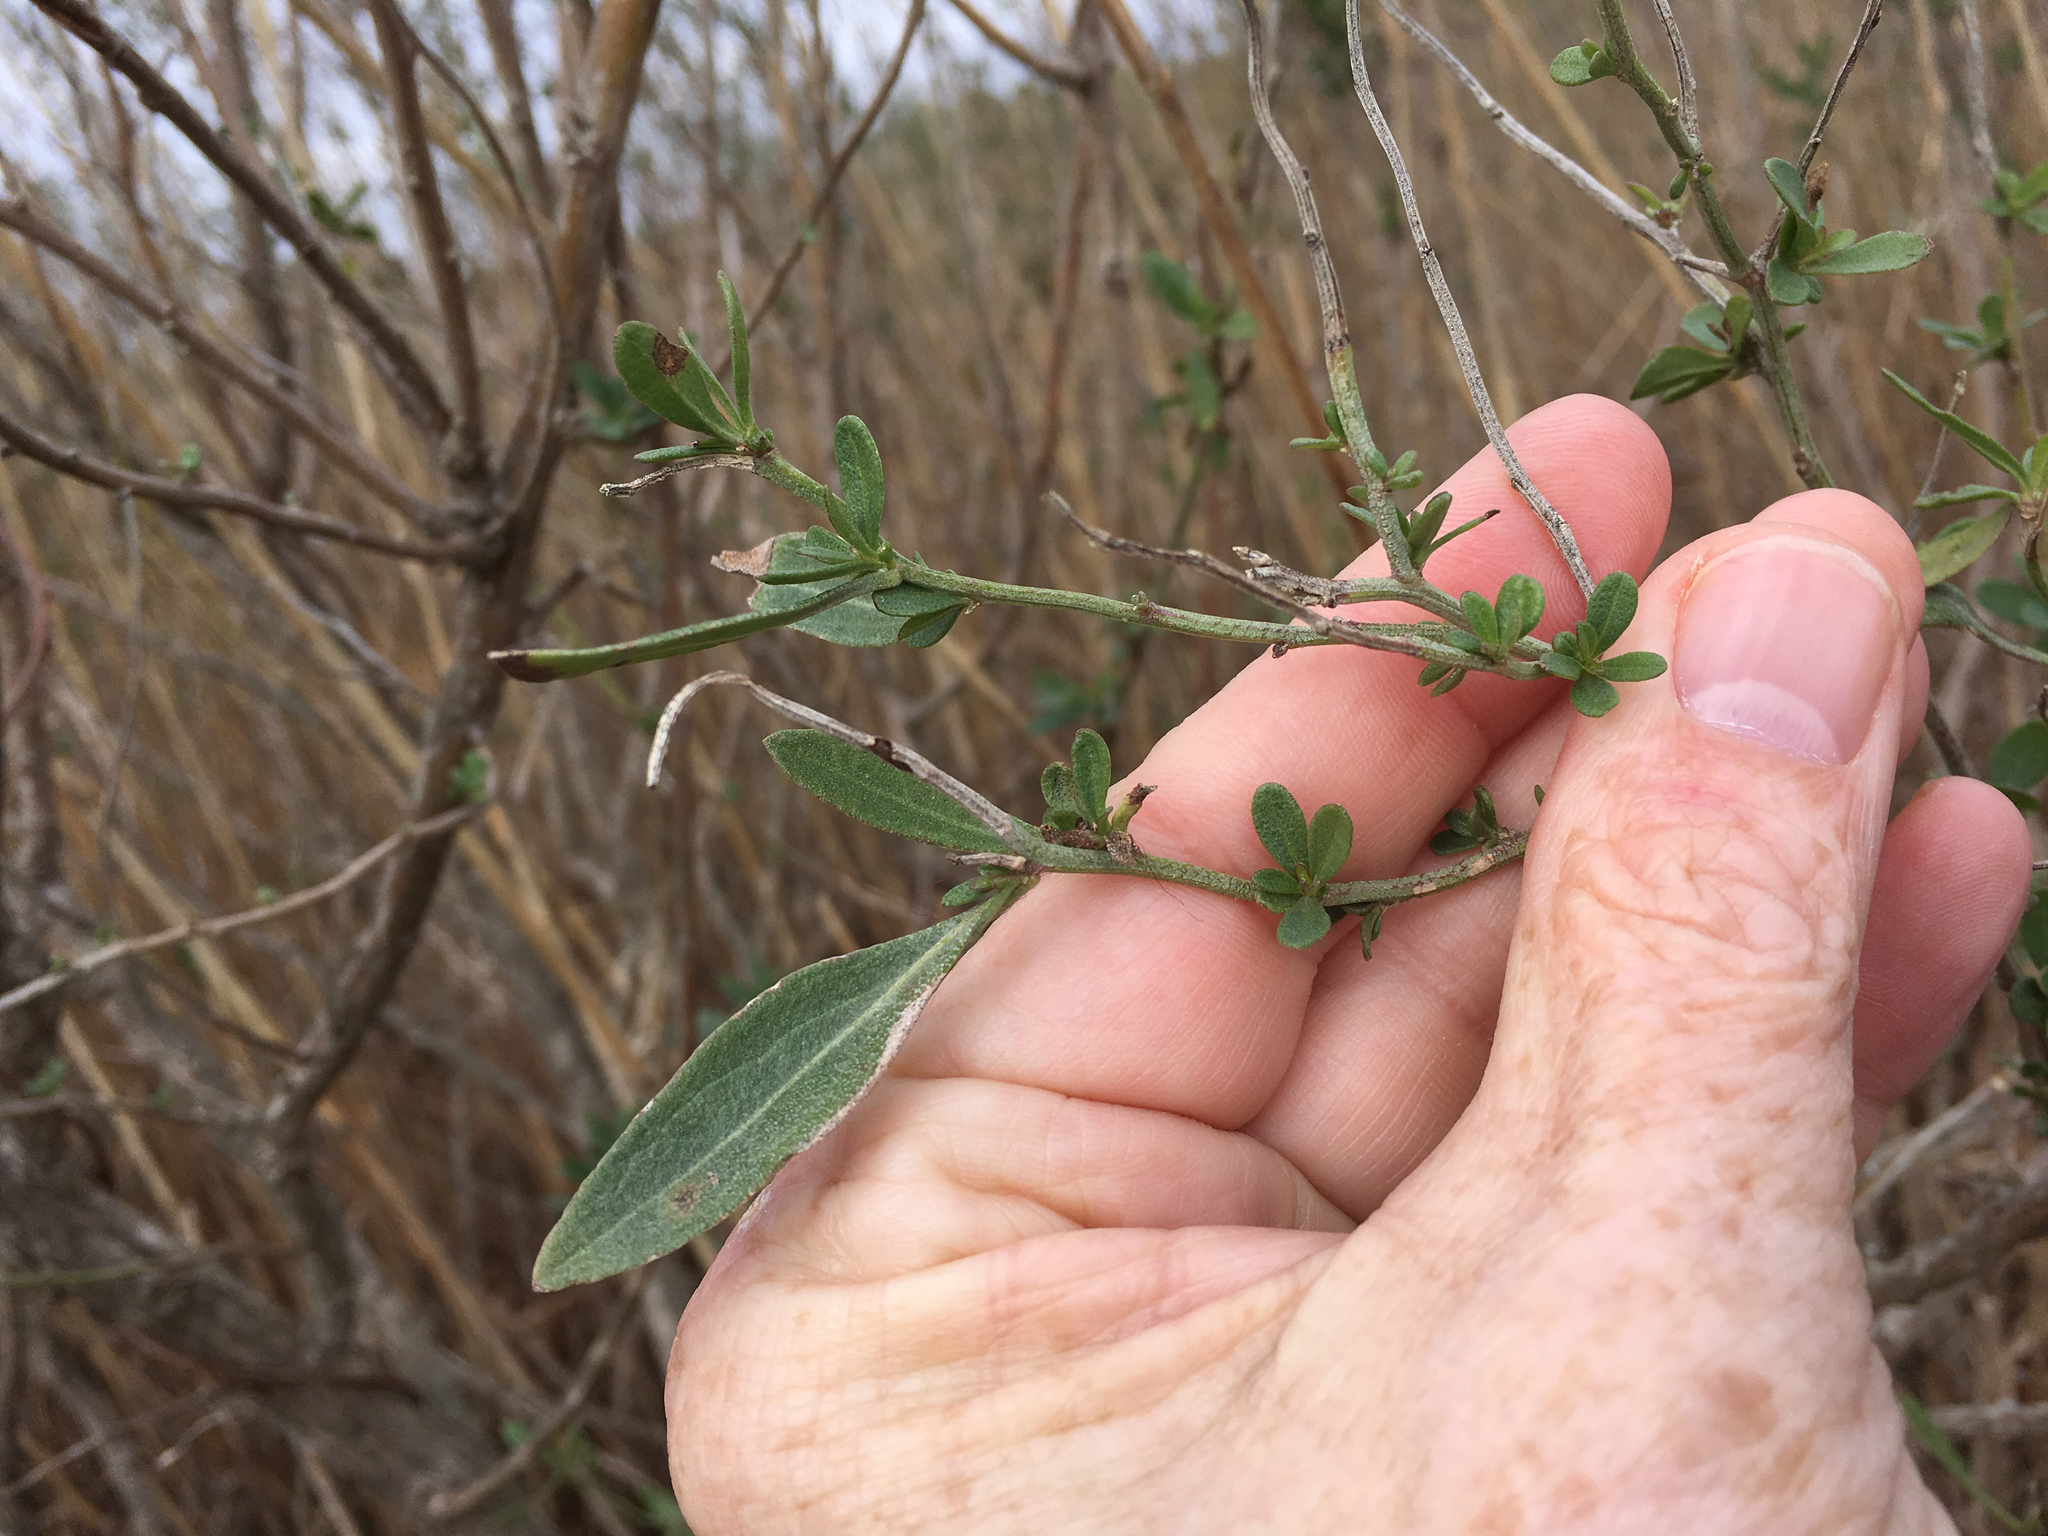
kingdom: Plantae
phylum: Tracheophyta
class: Magnoliopsida
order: Asterales
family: Asteraceae
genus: Baccharis
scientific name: Baccharis halimifolia
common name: Eastern baccharis
